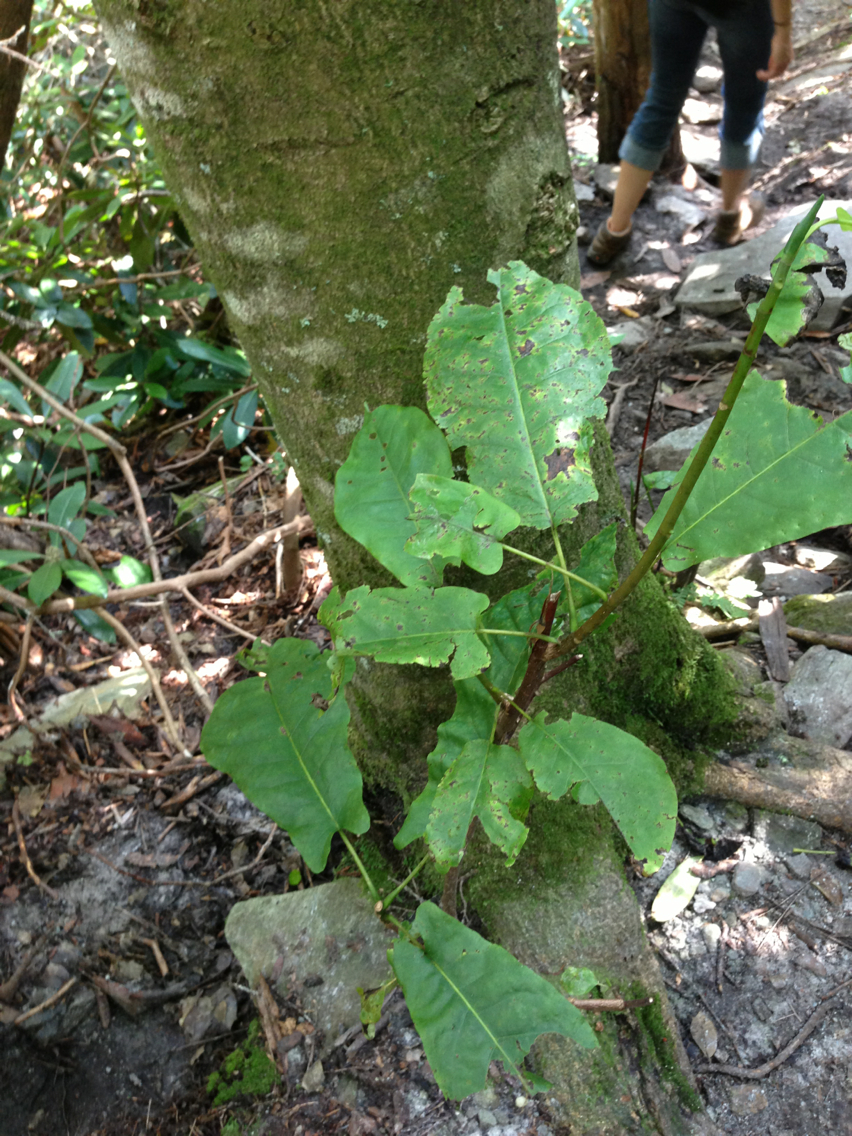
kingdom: Plantae
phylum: Tracheophyta
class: Magnoliopsida
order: Magnoliales
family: Magnoliaceae
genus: Magnolia
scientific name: Magnolia tripetala
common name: Umbrella magnolia
